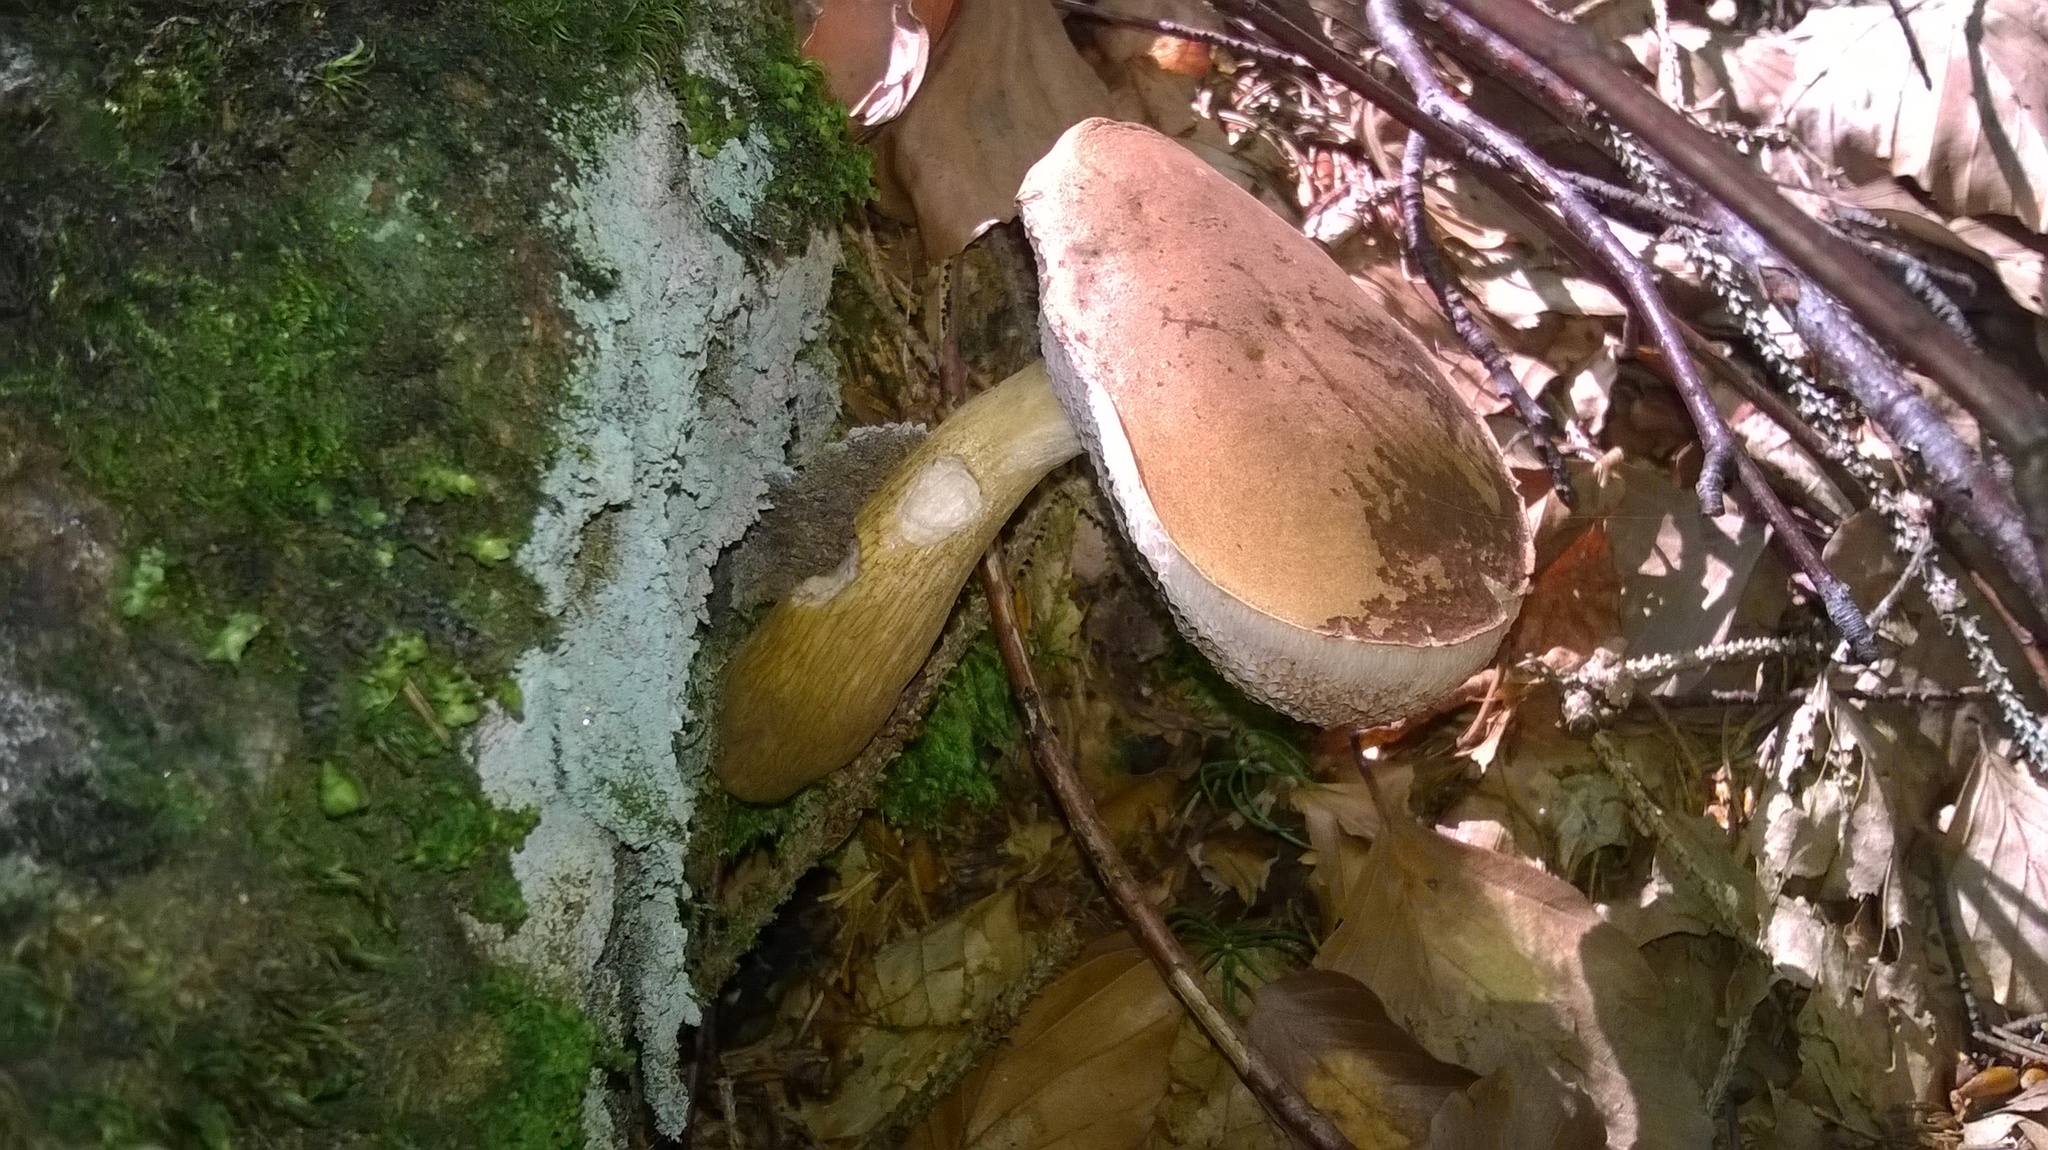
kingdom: Fungi
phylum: Basidiomycota
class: Agaricomycetes
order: Boletales
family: Boletaceae
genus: Tylopilus
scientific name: Tylopilus felleus
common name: Bitter bolete
